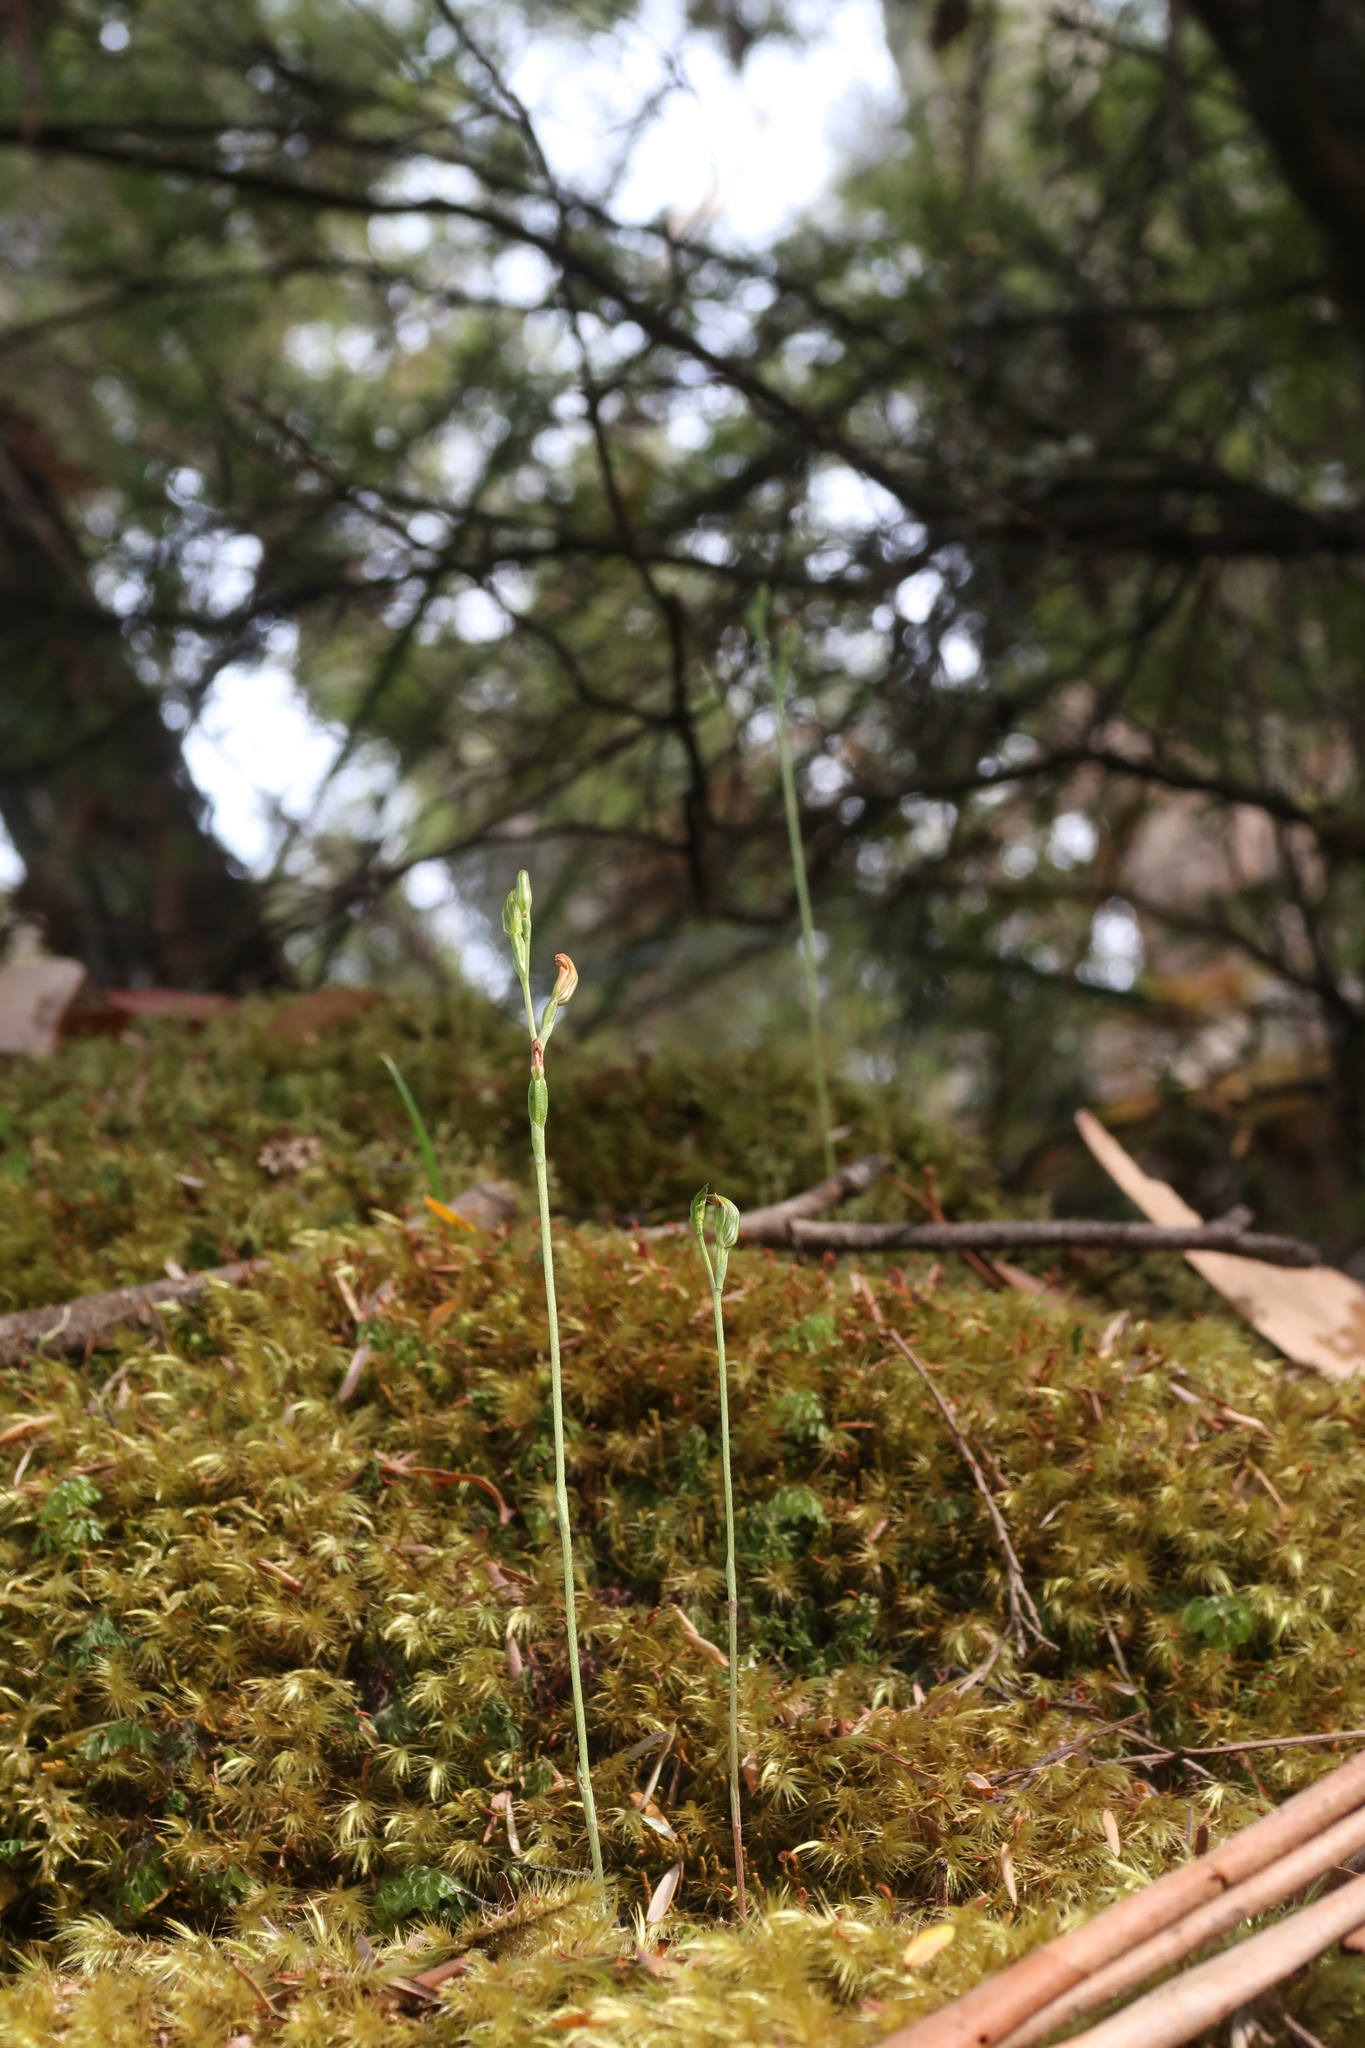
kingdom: Plantae
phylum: Tracheophyta
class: Liliopsida
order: Asparagales
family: Orchidaceae
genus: Pterostylis
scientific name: Pterostylis atriola
